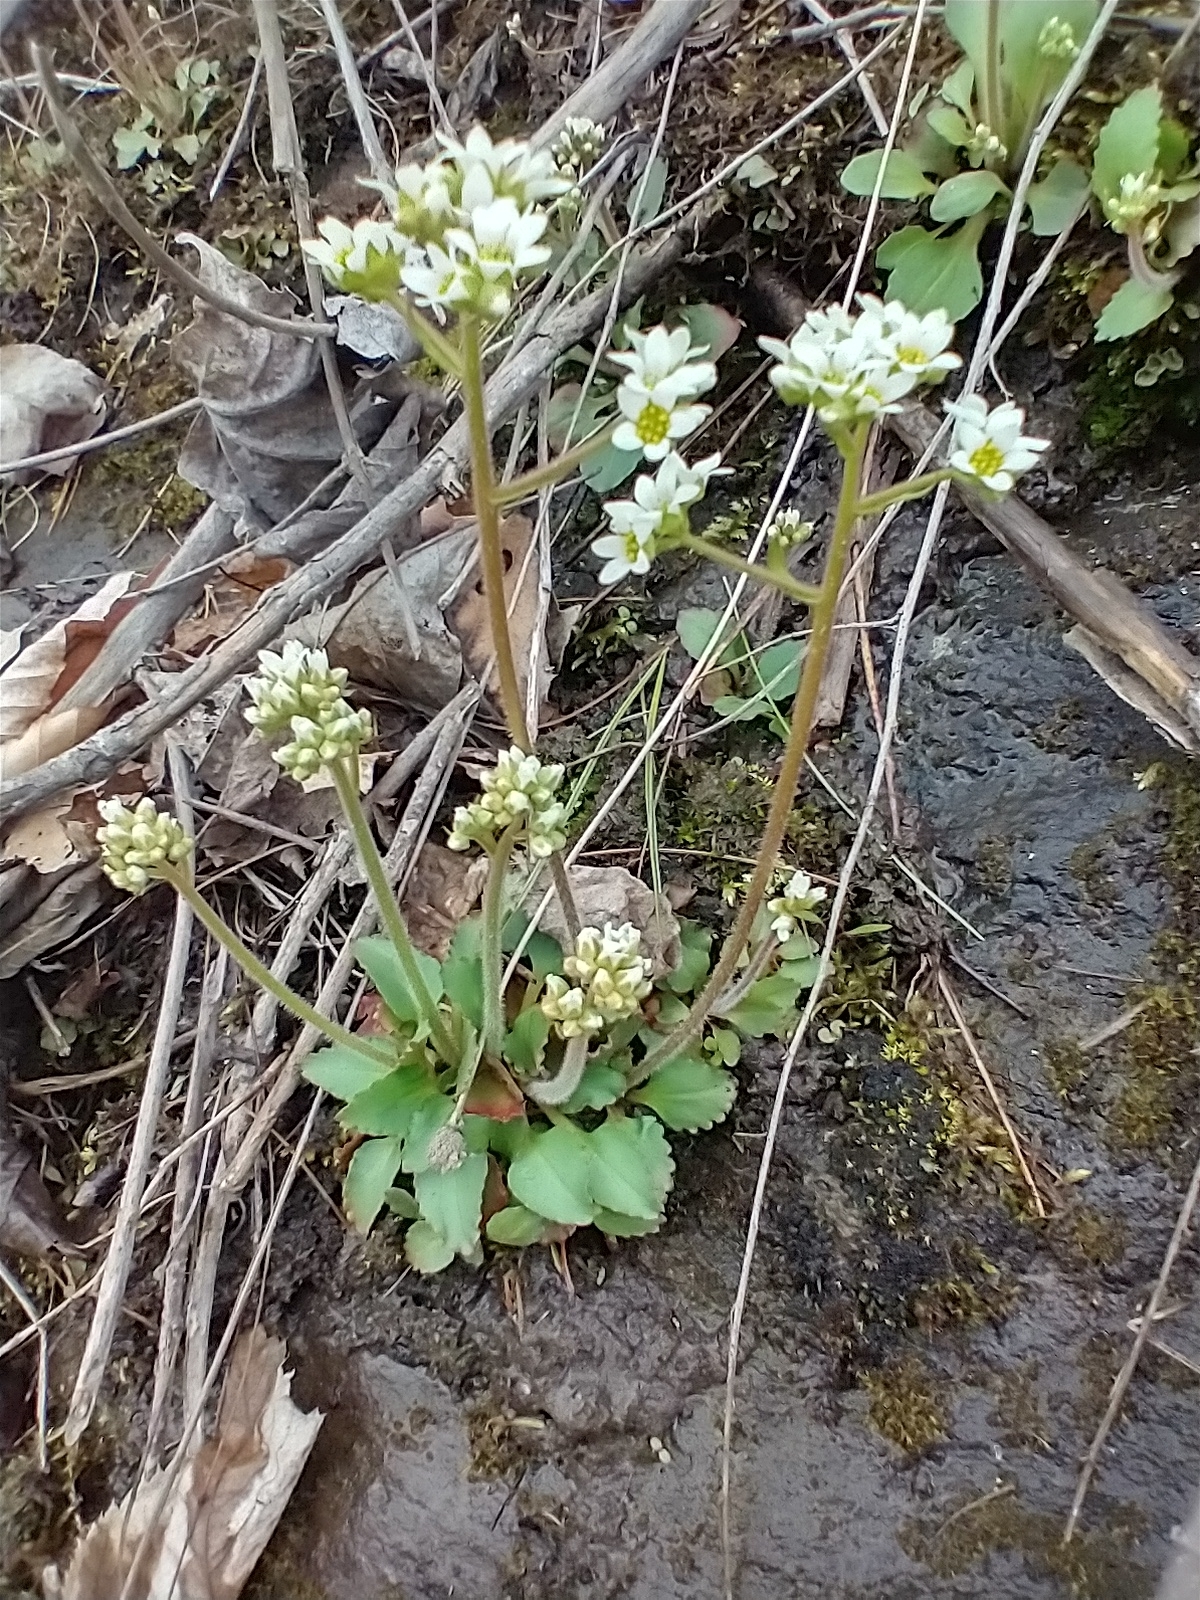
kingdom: Plantae
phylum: Tracheophyta
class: Magnoliopsida
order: Saxifragales
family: Saxifragaceae
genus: Micranthes
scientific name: Micranthes virginiensis
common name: Early saxifrage
